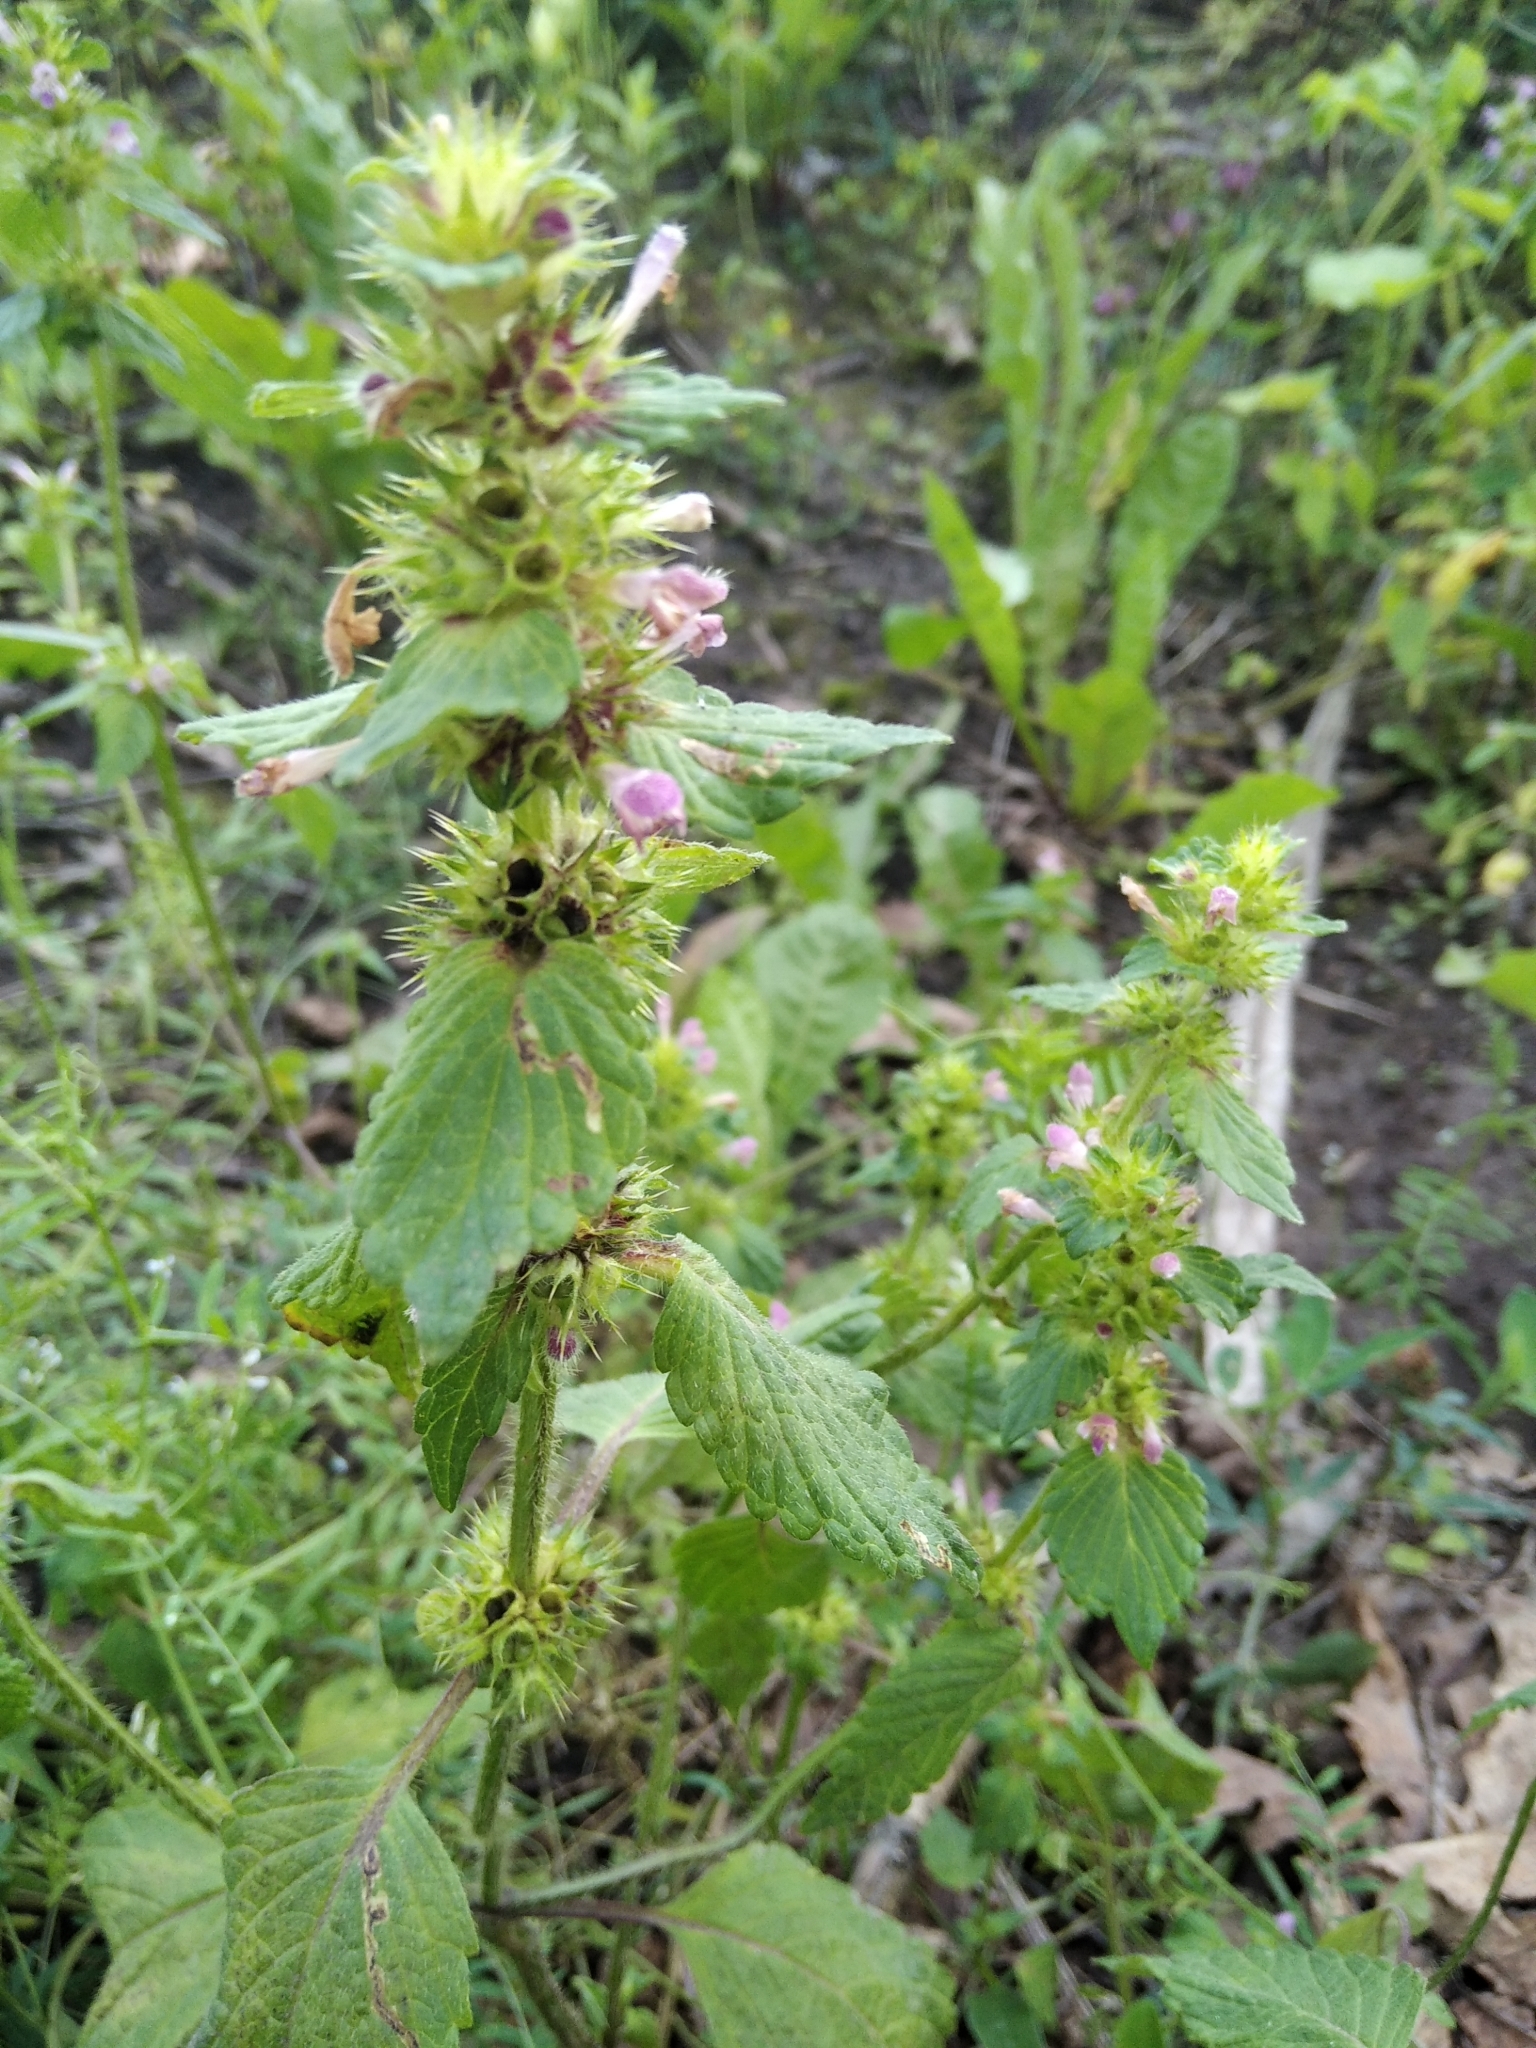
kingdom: Plantae
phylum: Tracheophyta
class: Magnoliopsida
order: Lamiales
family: Lamiaceae
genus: Galeopsis
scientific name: Galeopsis bifida
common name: Bifid hemp-nettle
